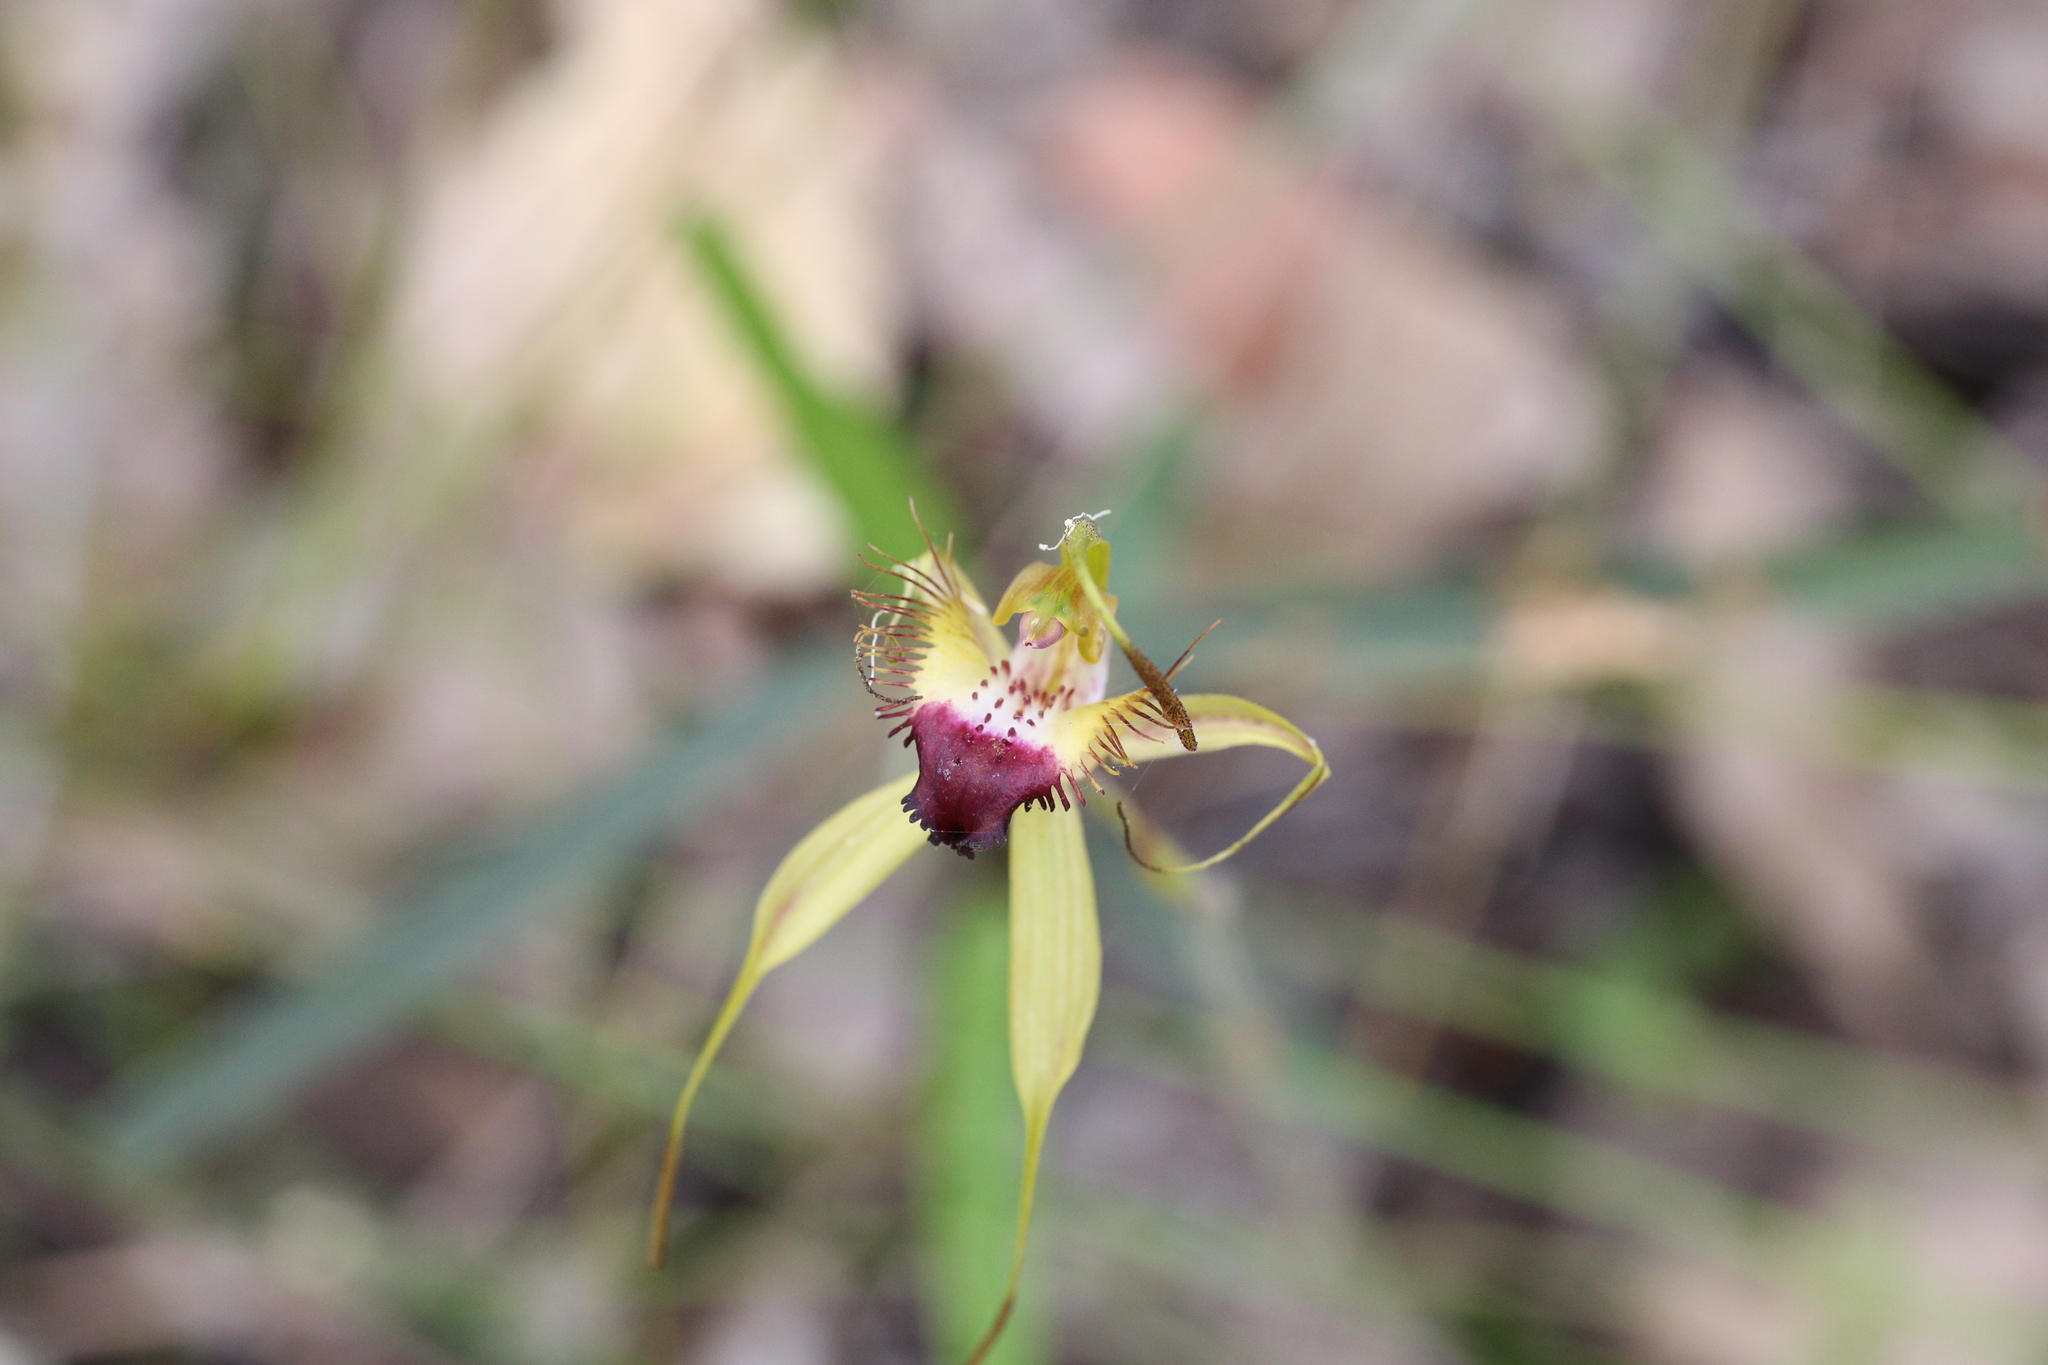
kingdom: Plantae
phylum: Tracheophyta
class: Liliopsida
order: Asparagales
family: Orchidaceae
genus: Caladenia
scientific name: Caladenia brownii
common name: Kari spider orchid
